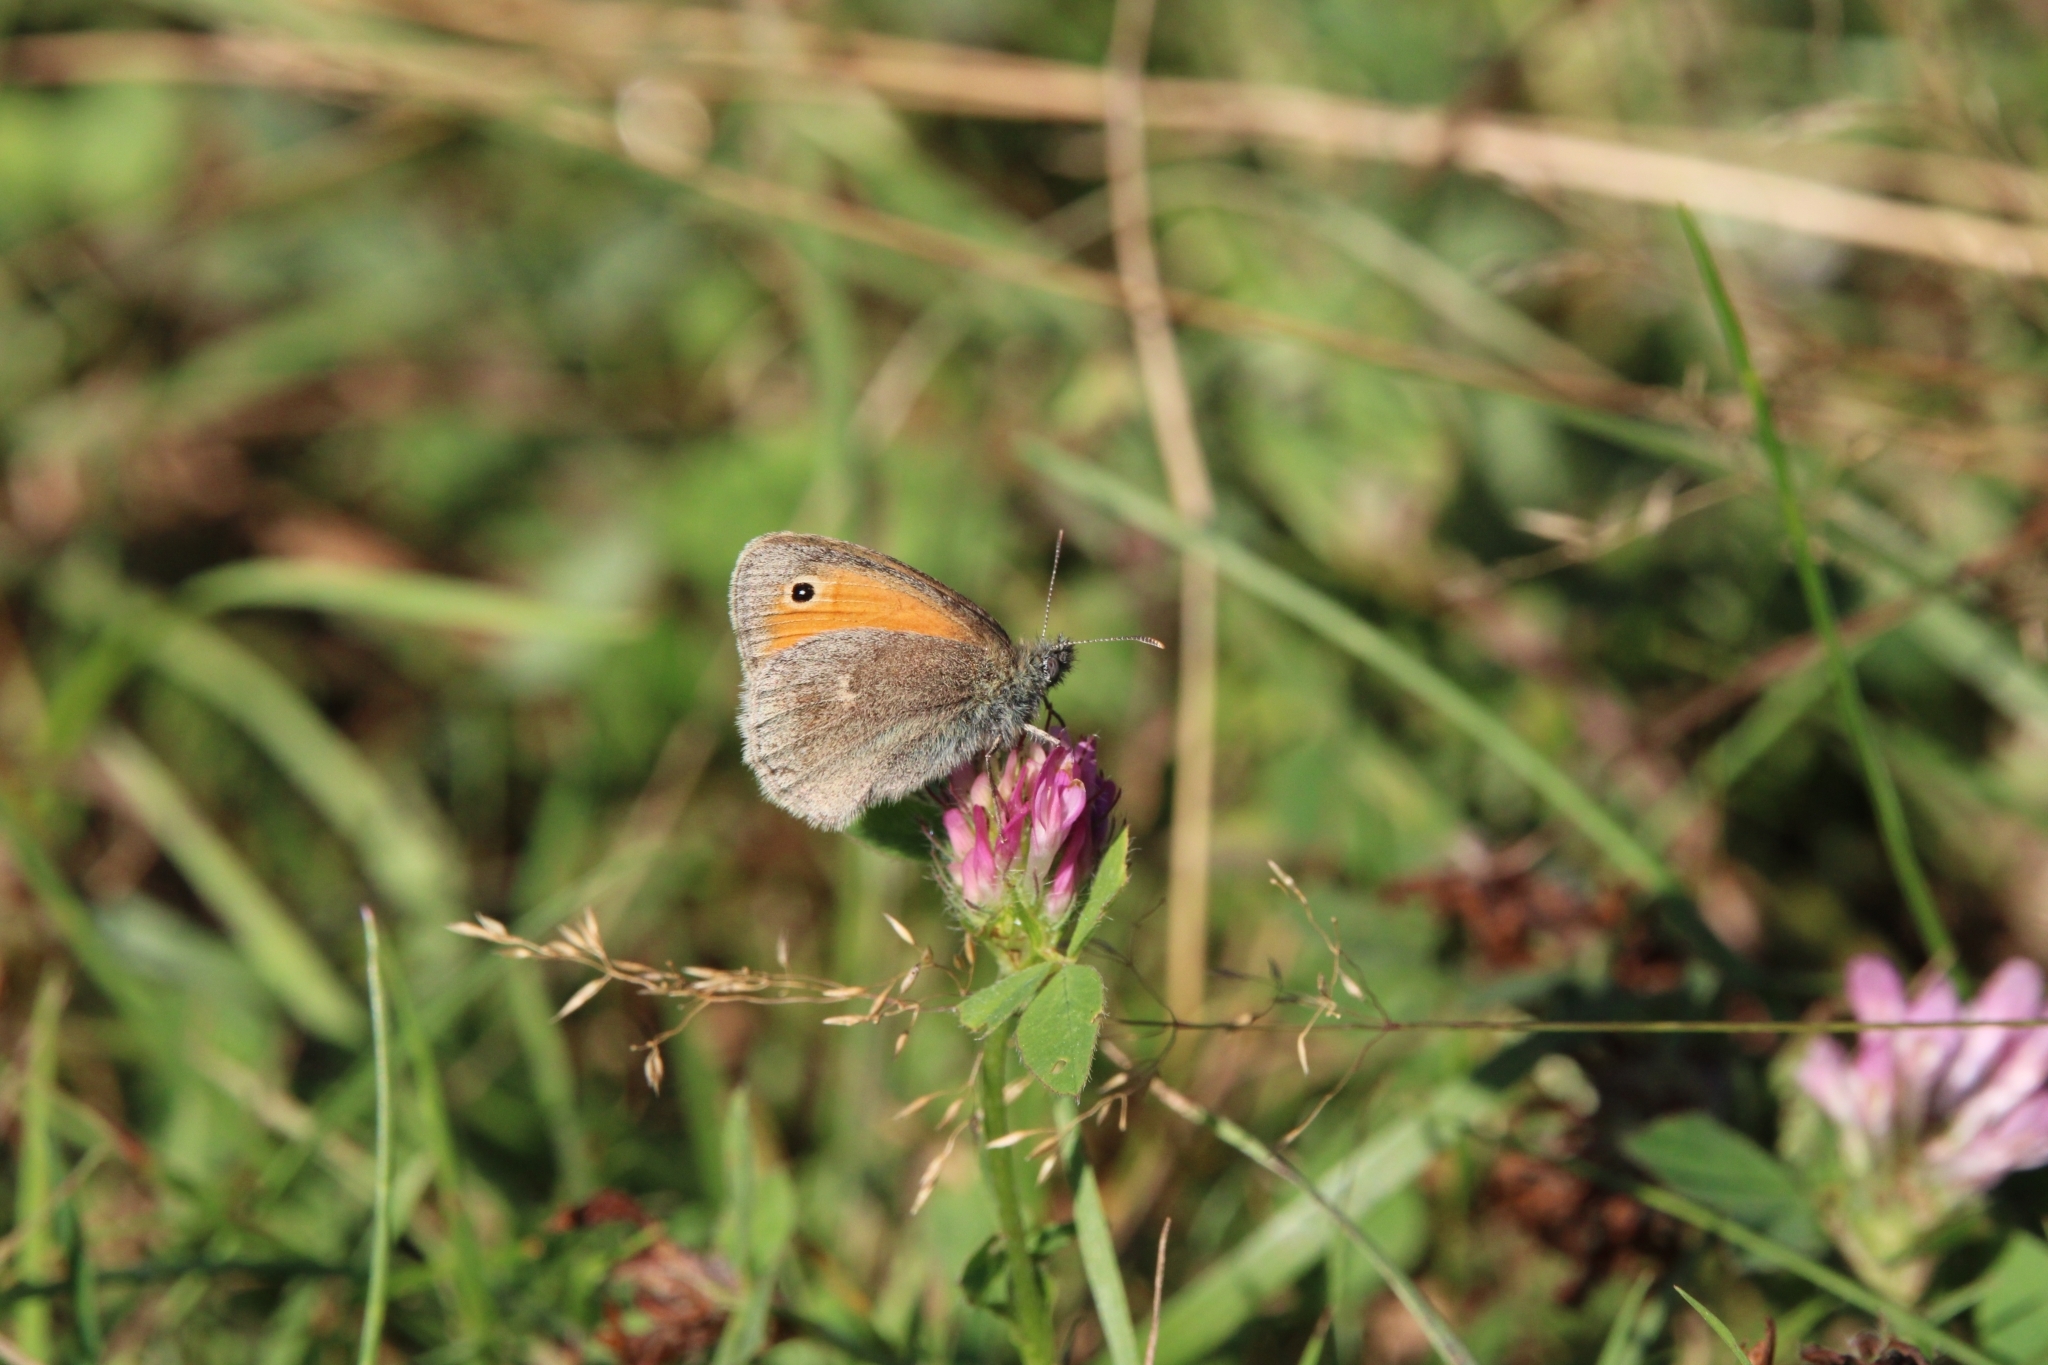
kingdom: Animalia
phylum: Arthropoda
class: Insecta
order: Lepidoptera
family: Nymphalidae
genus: Coenonympha
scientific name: Coenonympha pamphilus
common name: Small heath
